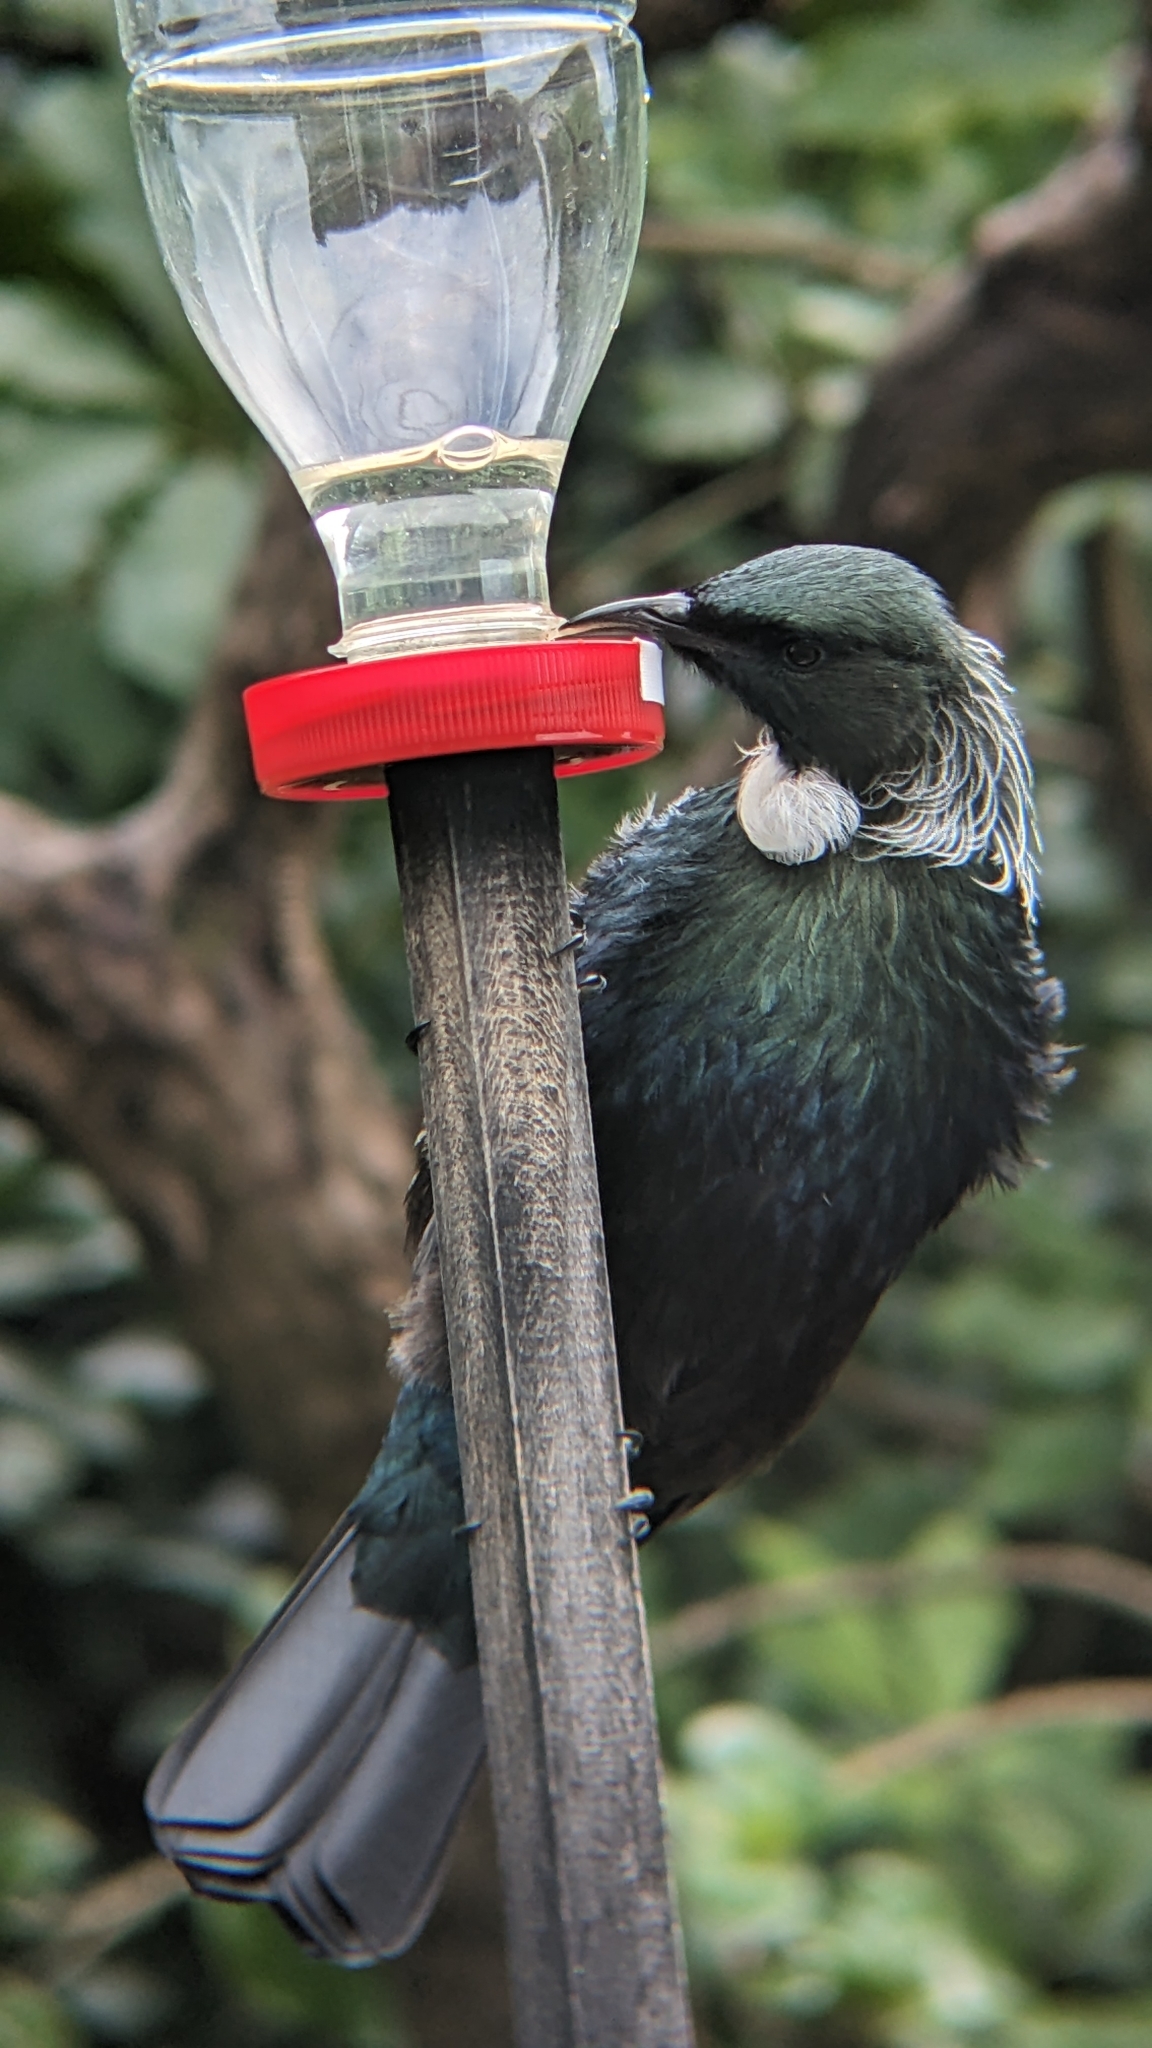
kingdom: Animalia
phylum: Chordata
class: Aves
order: Passeriformes
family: Meliphagidae
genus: Prosthemadera
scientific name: Prosthemadera novaeseelandiae
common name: Tui
